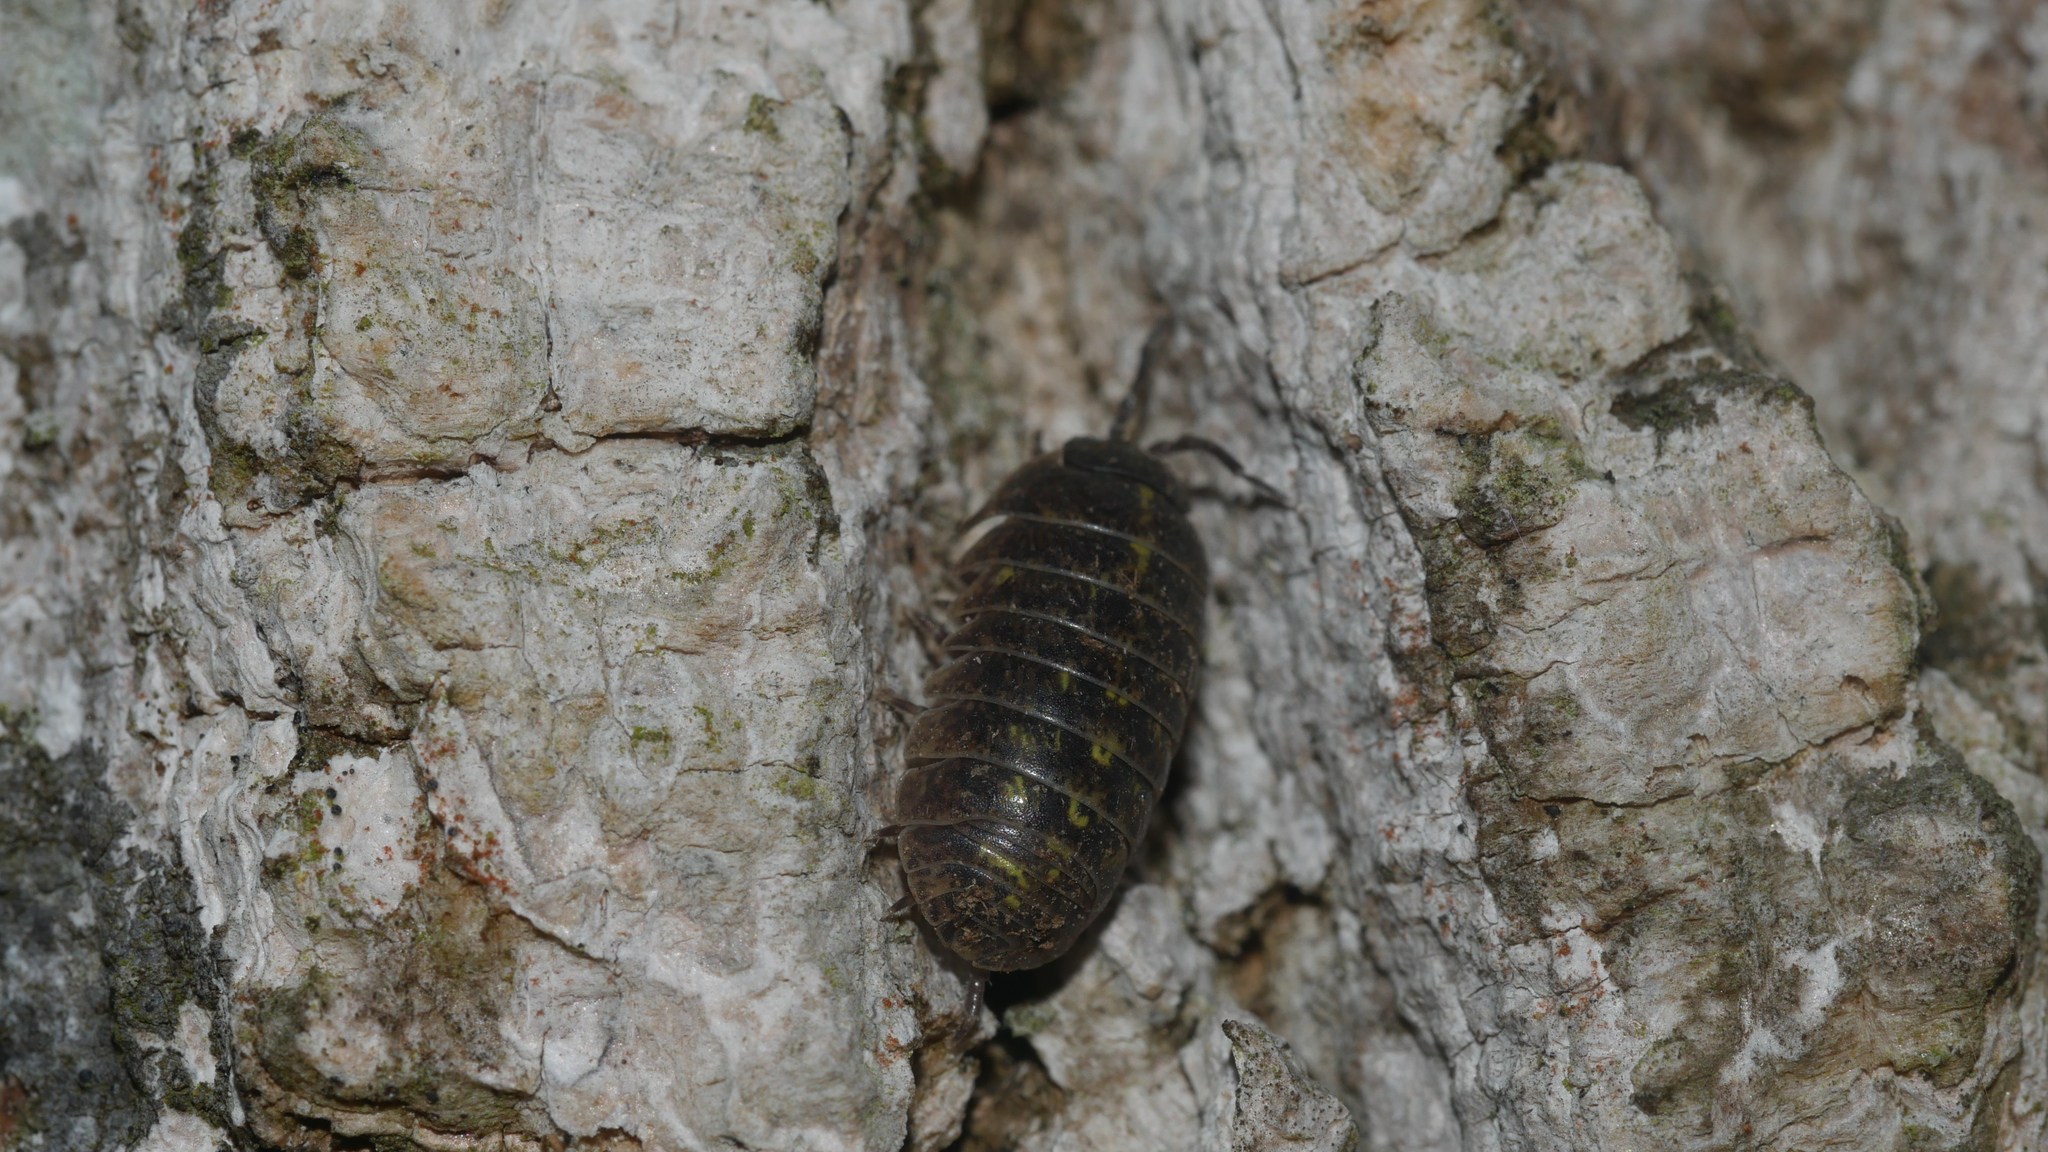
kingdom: Animalia
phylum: Arthropoda
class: Malacostraca
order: Isopoda
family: Armadillidiidae
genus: Armadillidium
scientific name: Armadillidium vulgare
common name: Common pill woodlouse
